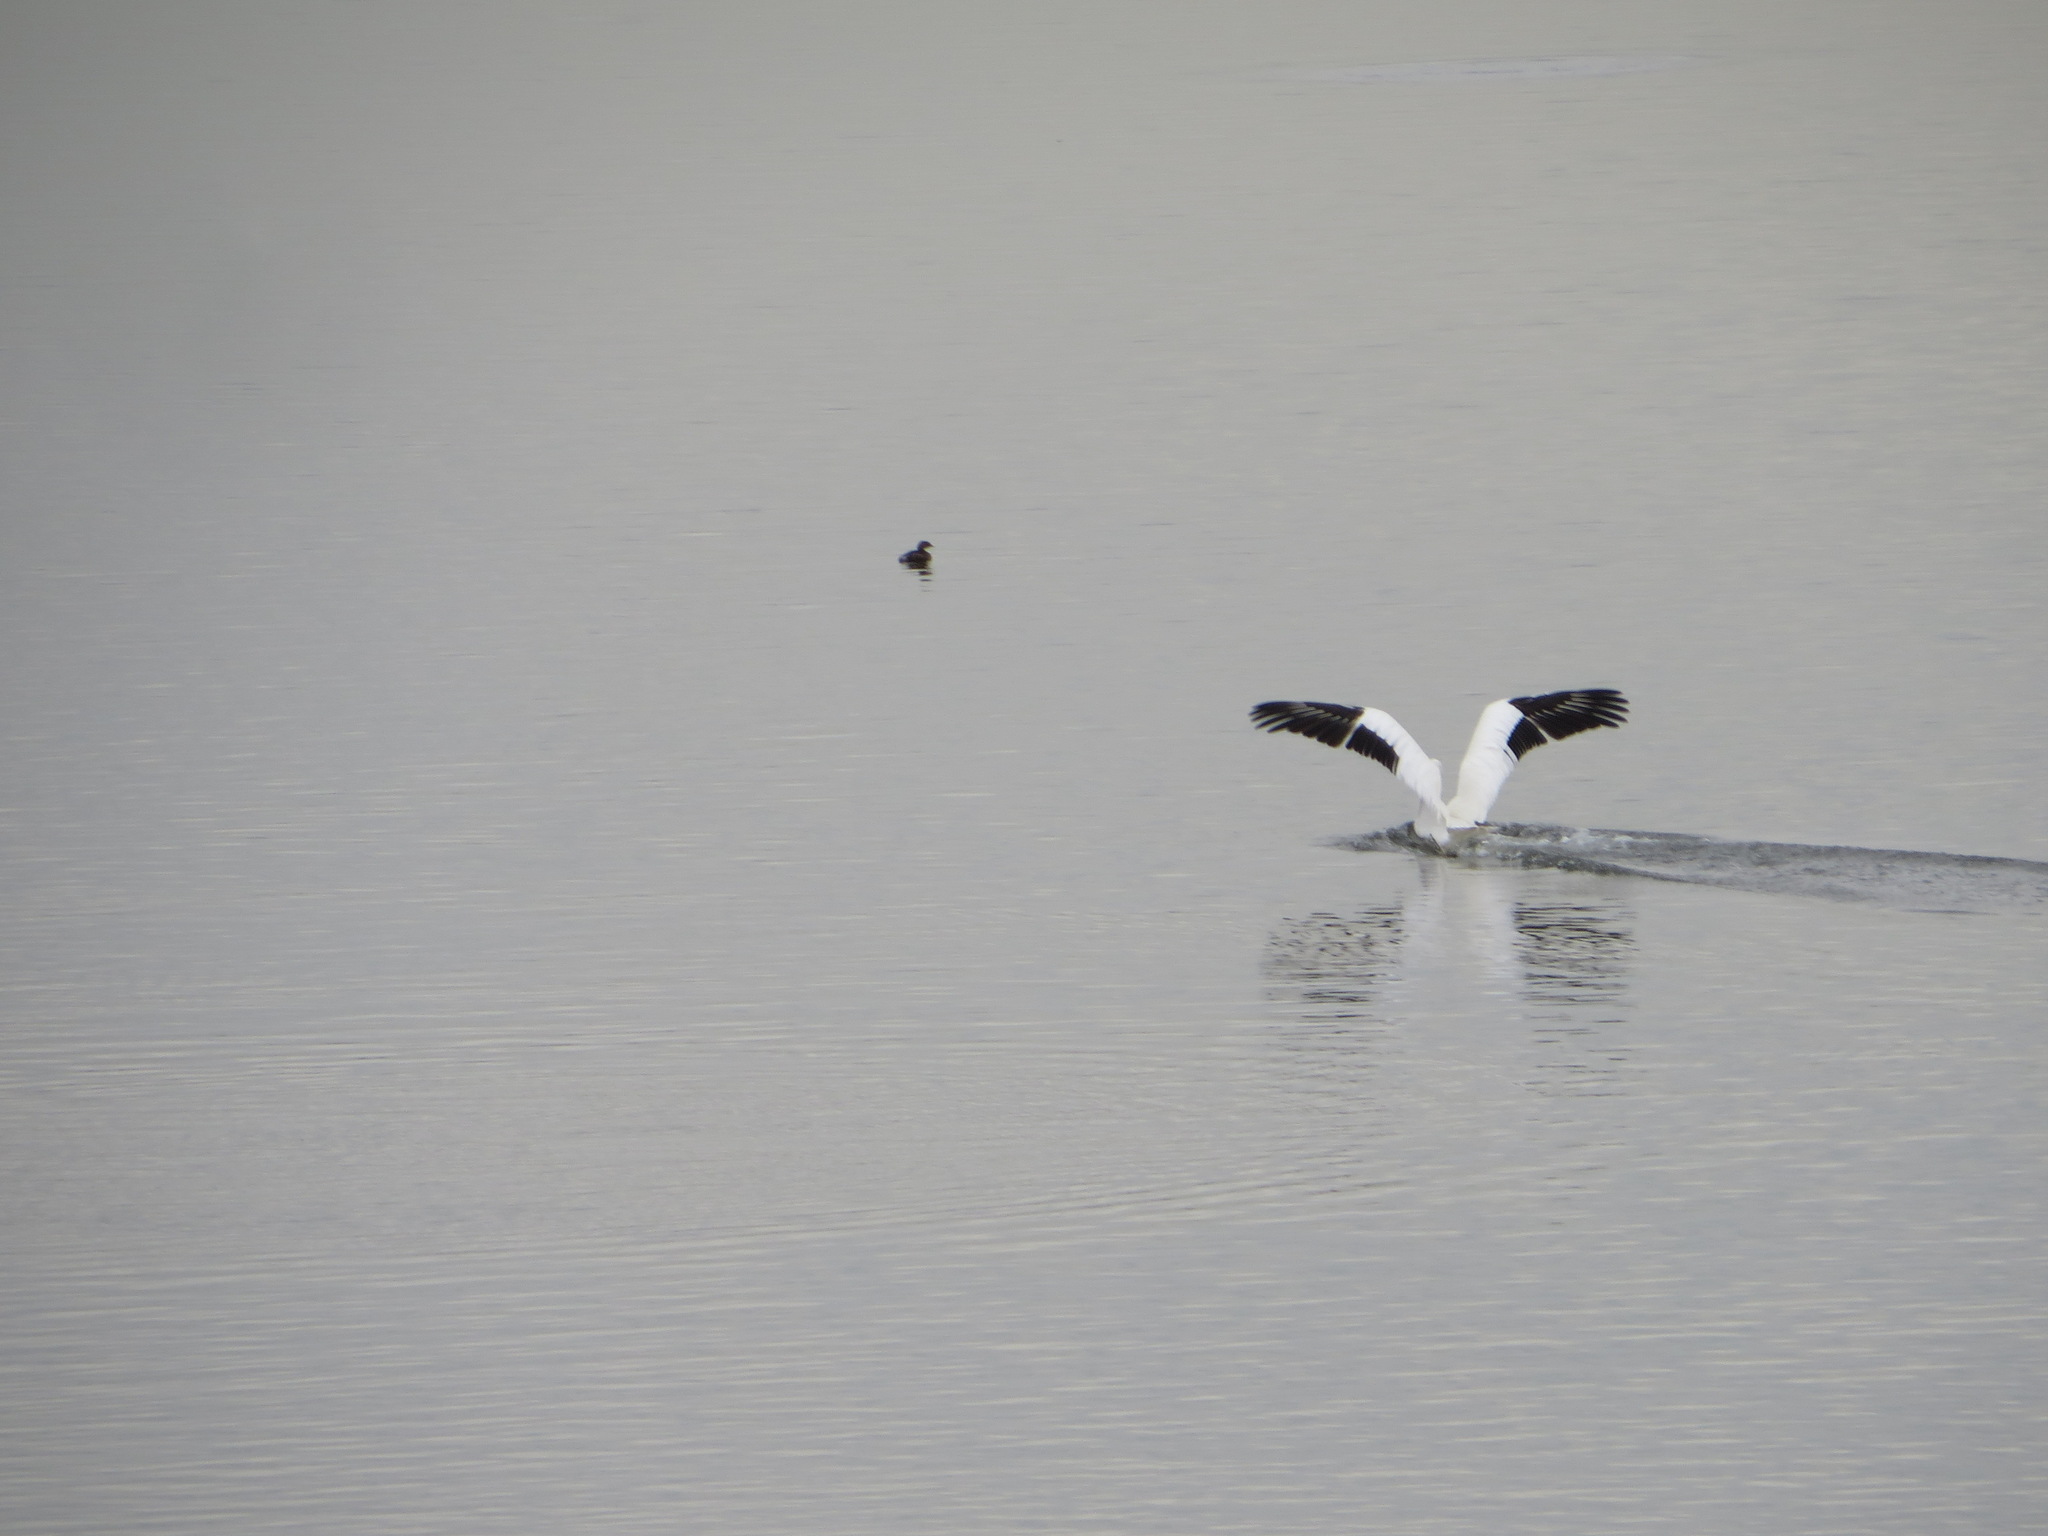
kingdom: Animalia
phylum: Chordata
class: Aves
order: Pelecaniformes
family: Pelecanidae
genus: Pelecanus
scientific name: Pelecanus erythrorhynchos
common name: American white pelican
